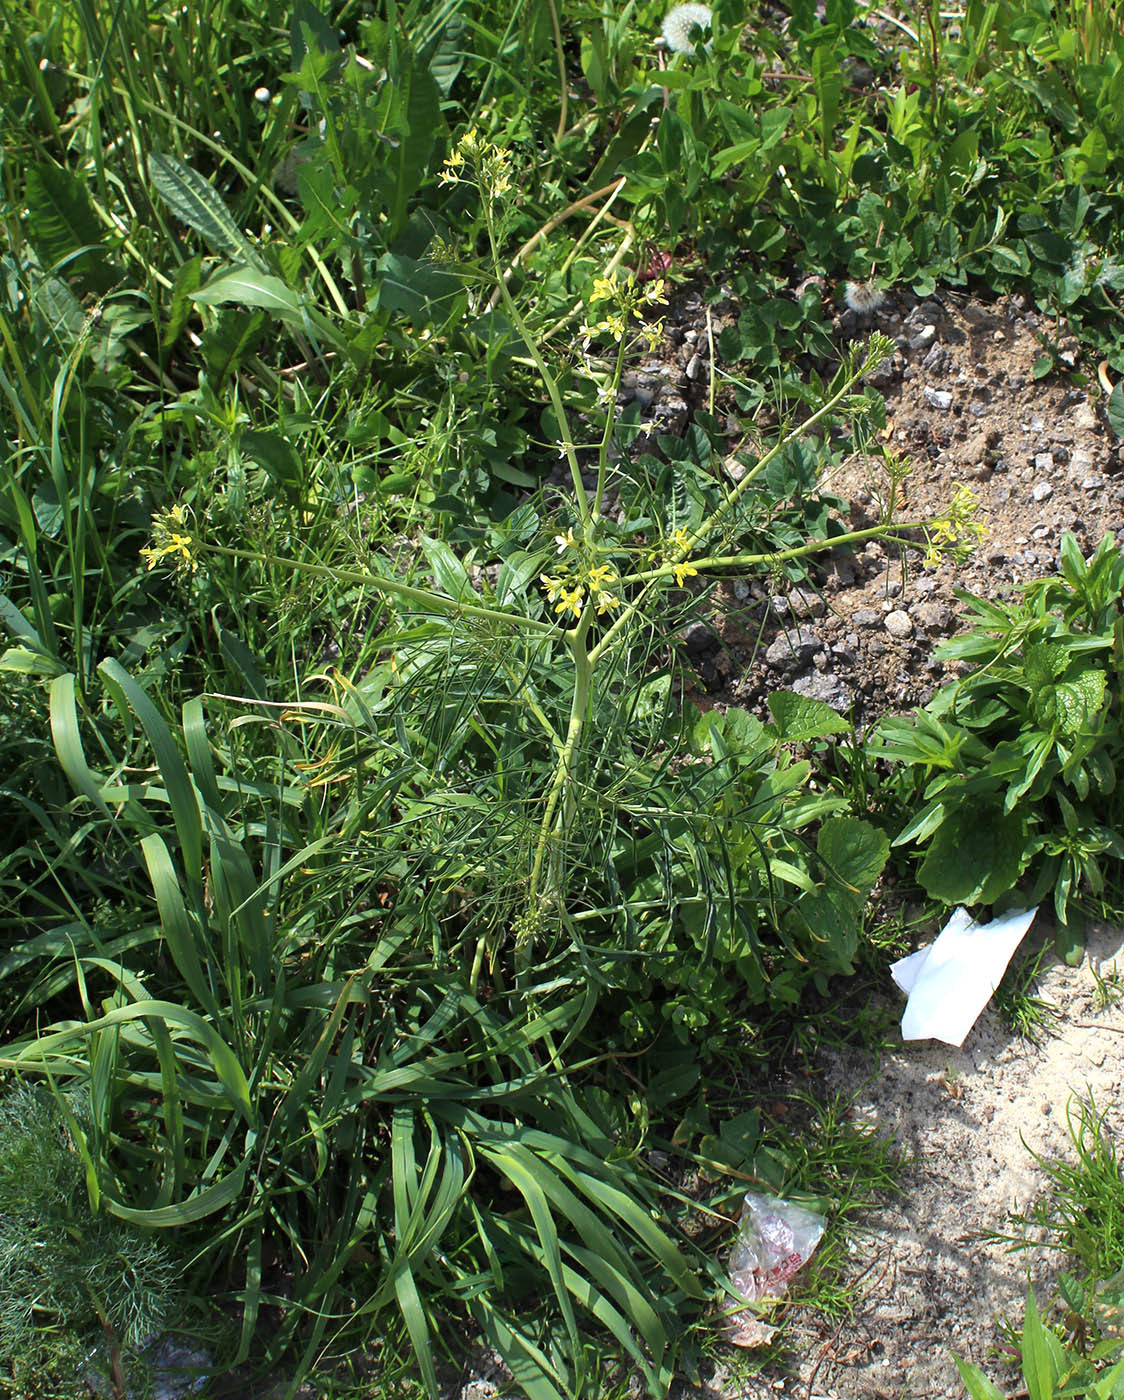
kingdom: Plantae
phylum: Tracheophyta
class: Magnoliopsida
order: Brassicales
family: Brassicaceae
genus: Sisymbrium
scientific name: Sisymbrium altissimum
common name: Tall rocket
